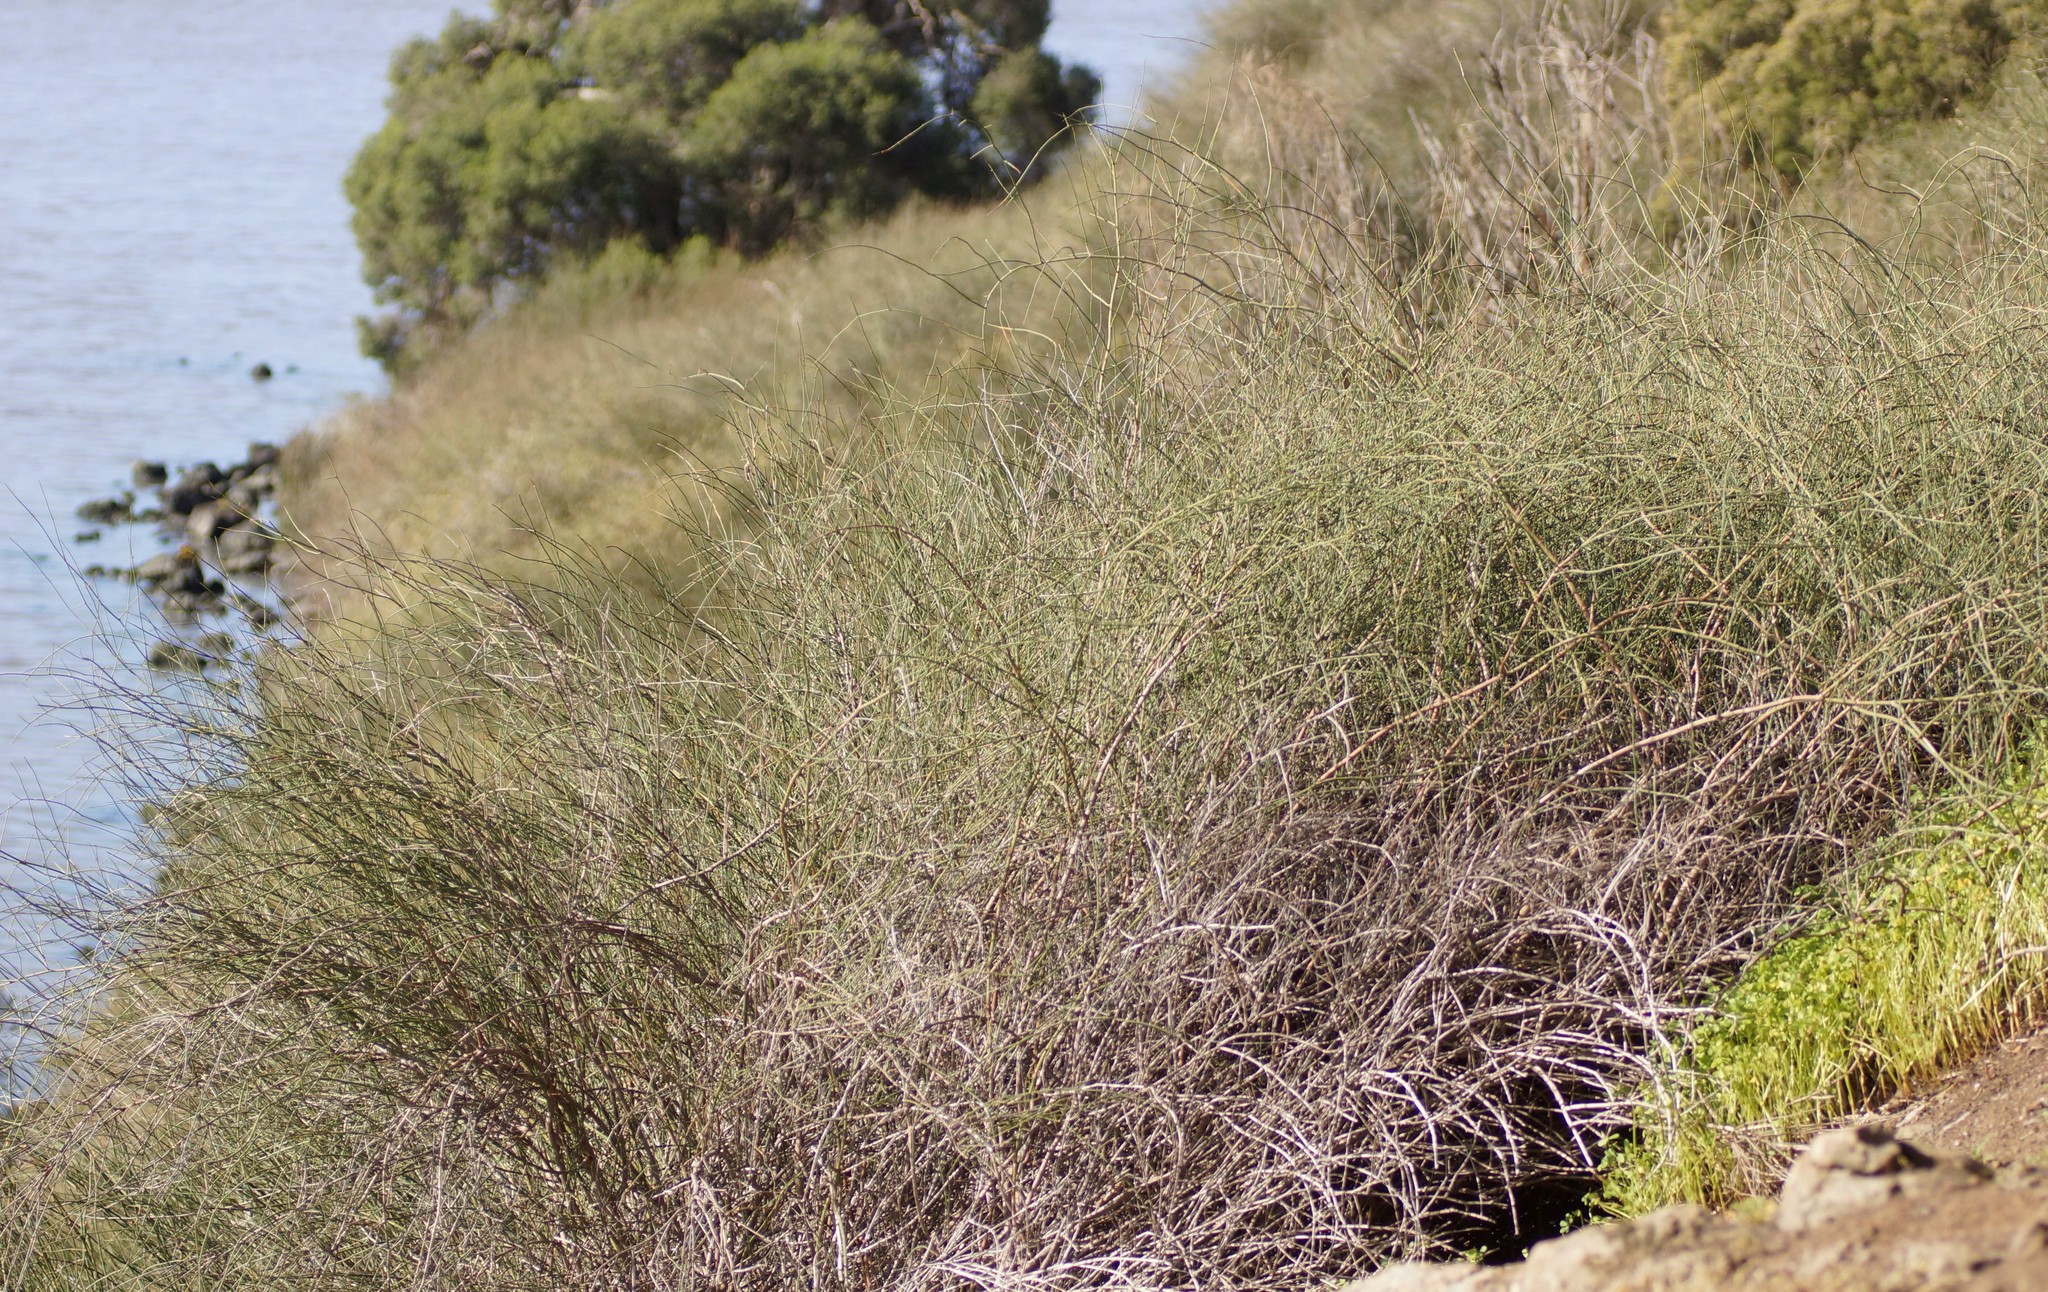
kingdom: Plantae
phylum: Tracheophyta
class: Magnoliopsida
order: Caryophyllales
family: Polygonaceae
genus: Duma
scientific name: Duma florulenta
